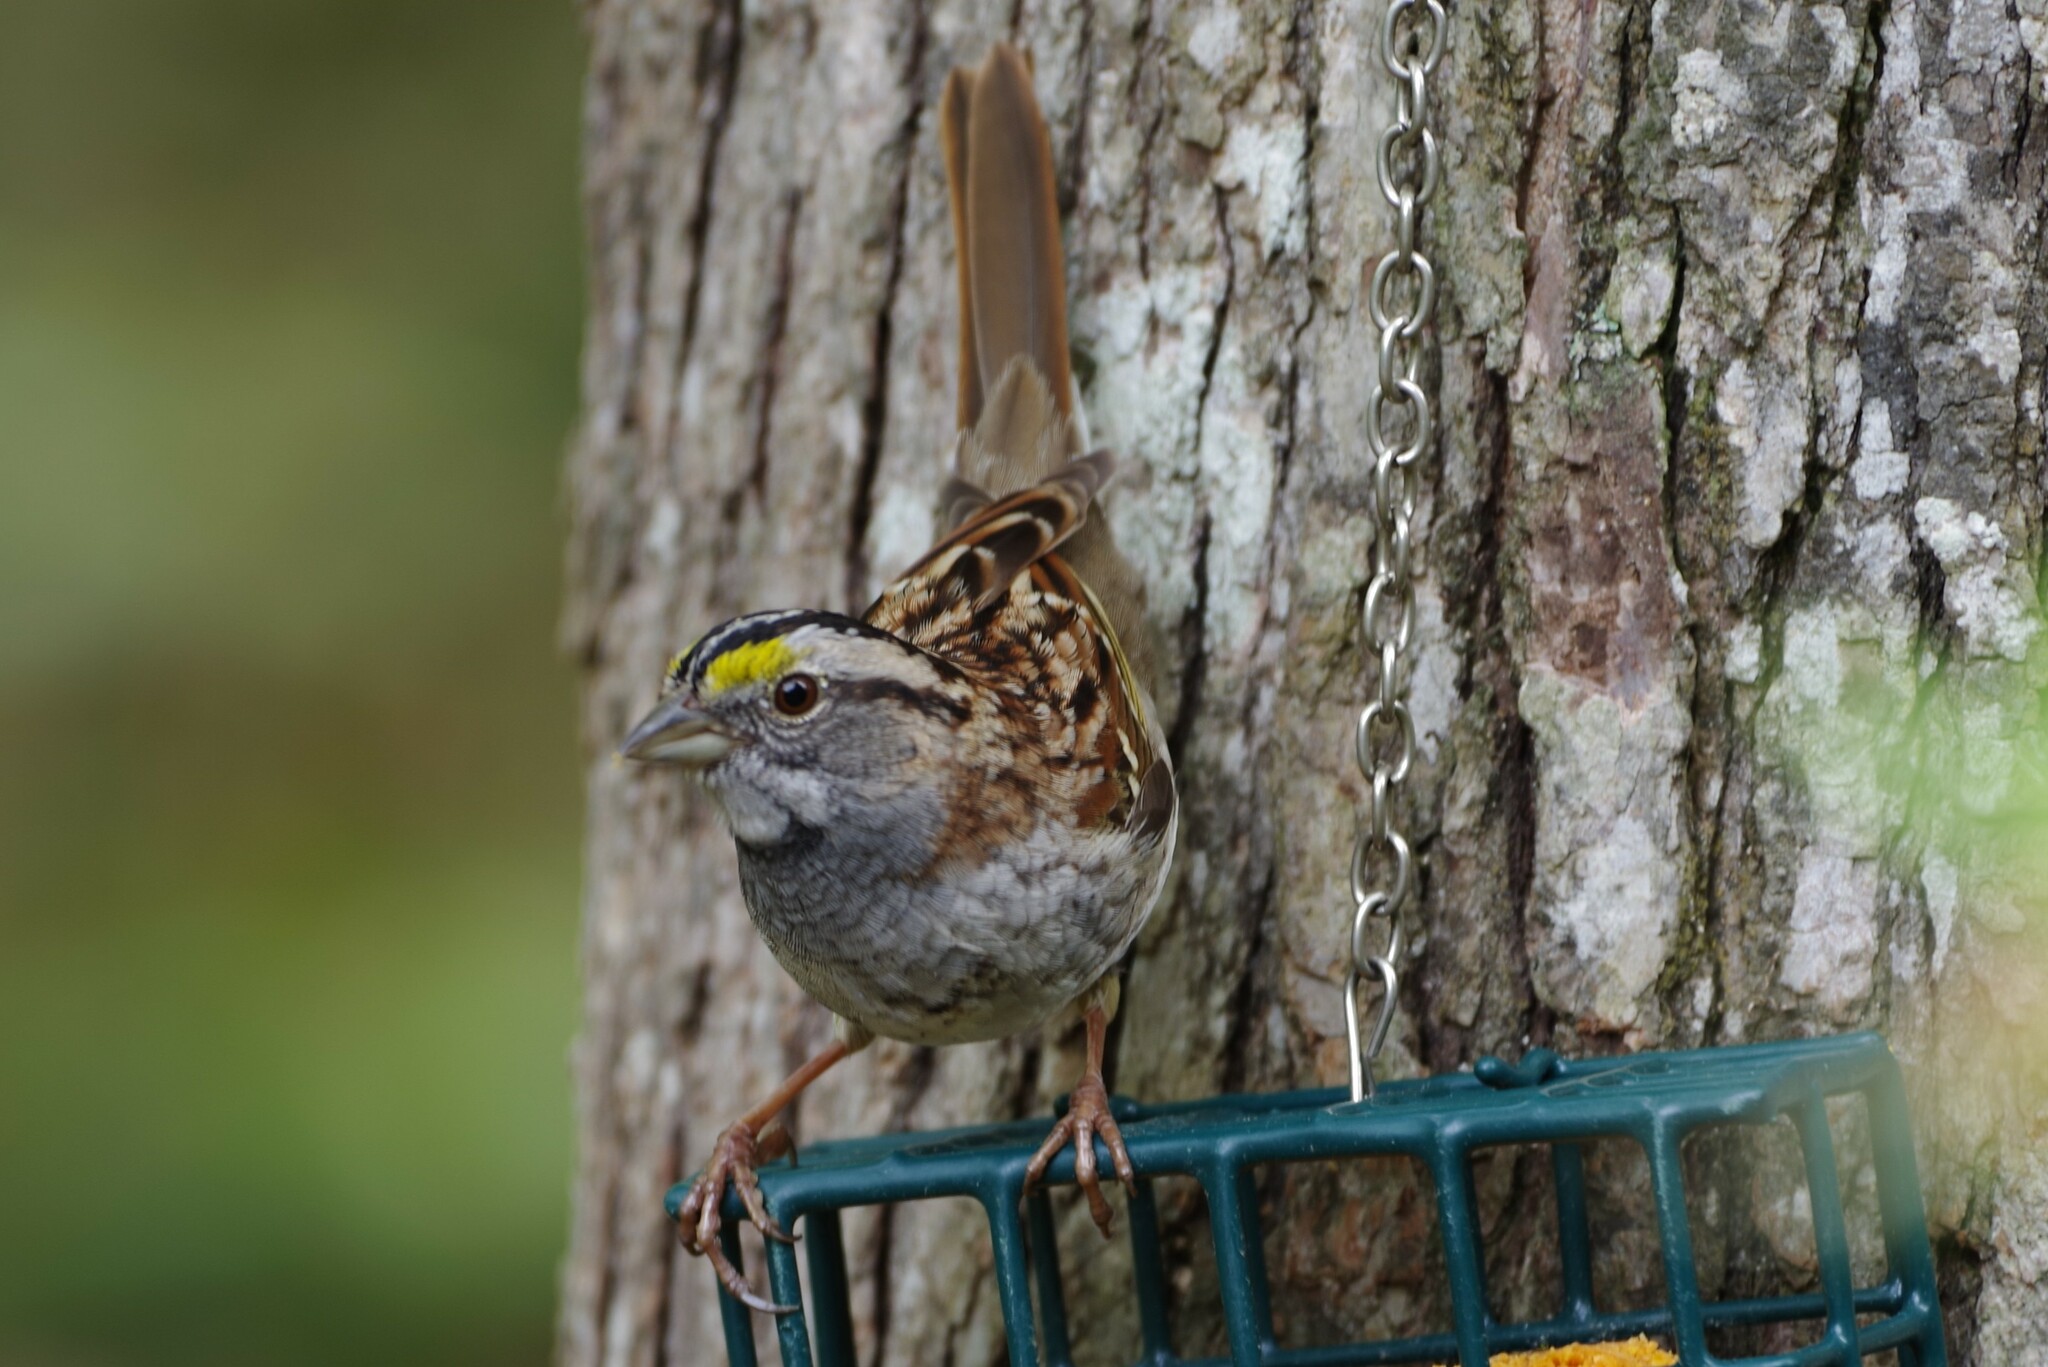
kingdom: Animalia
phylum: Chordata
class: Aves
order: Passeriformes
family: Passerellidae
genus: Zonotrichia
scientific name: Zonotrichia albicollis
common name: White-throated sparrow
